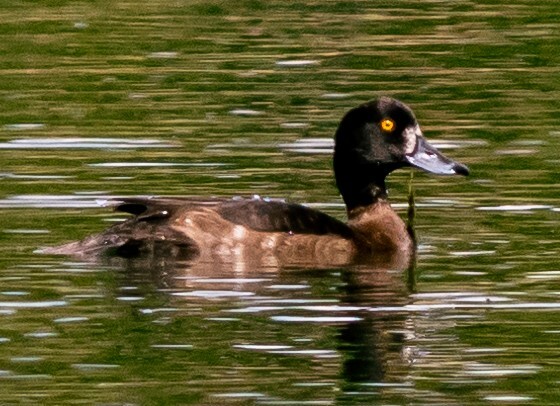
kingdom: Animalia
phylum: Chordata
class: Aves
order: Anseriformes
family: Anatidae
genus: Aythya
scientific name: Aythya fuligula
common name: Tufted duck
